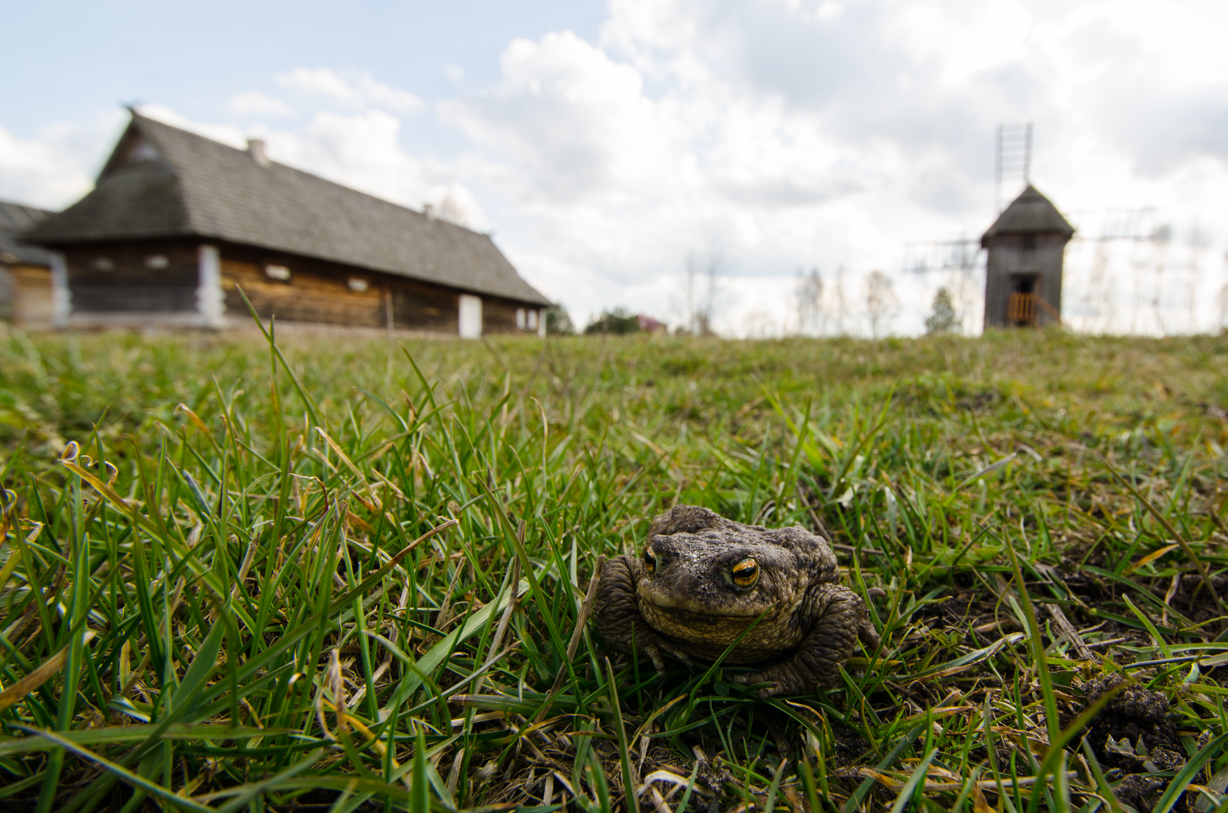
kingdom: Animalia
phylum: Chordata
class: Amphibia
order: Anura
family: Bufonidae
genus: Bufo
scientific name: Bufo bufo
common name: Common toad
